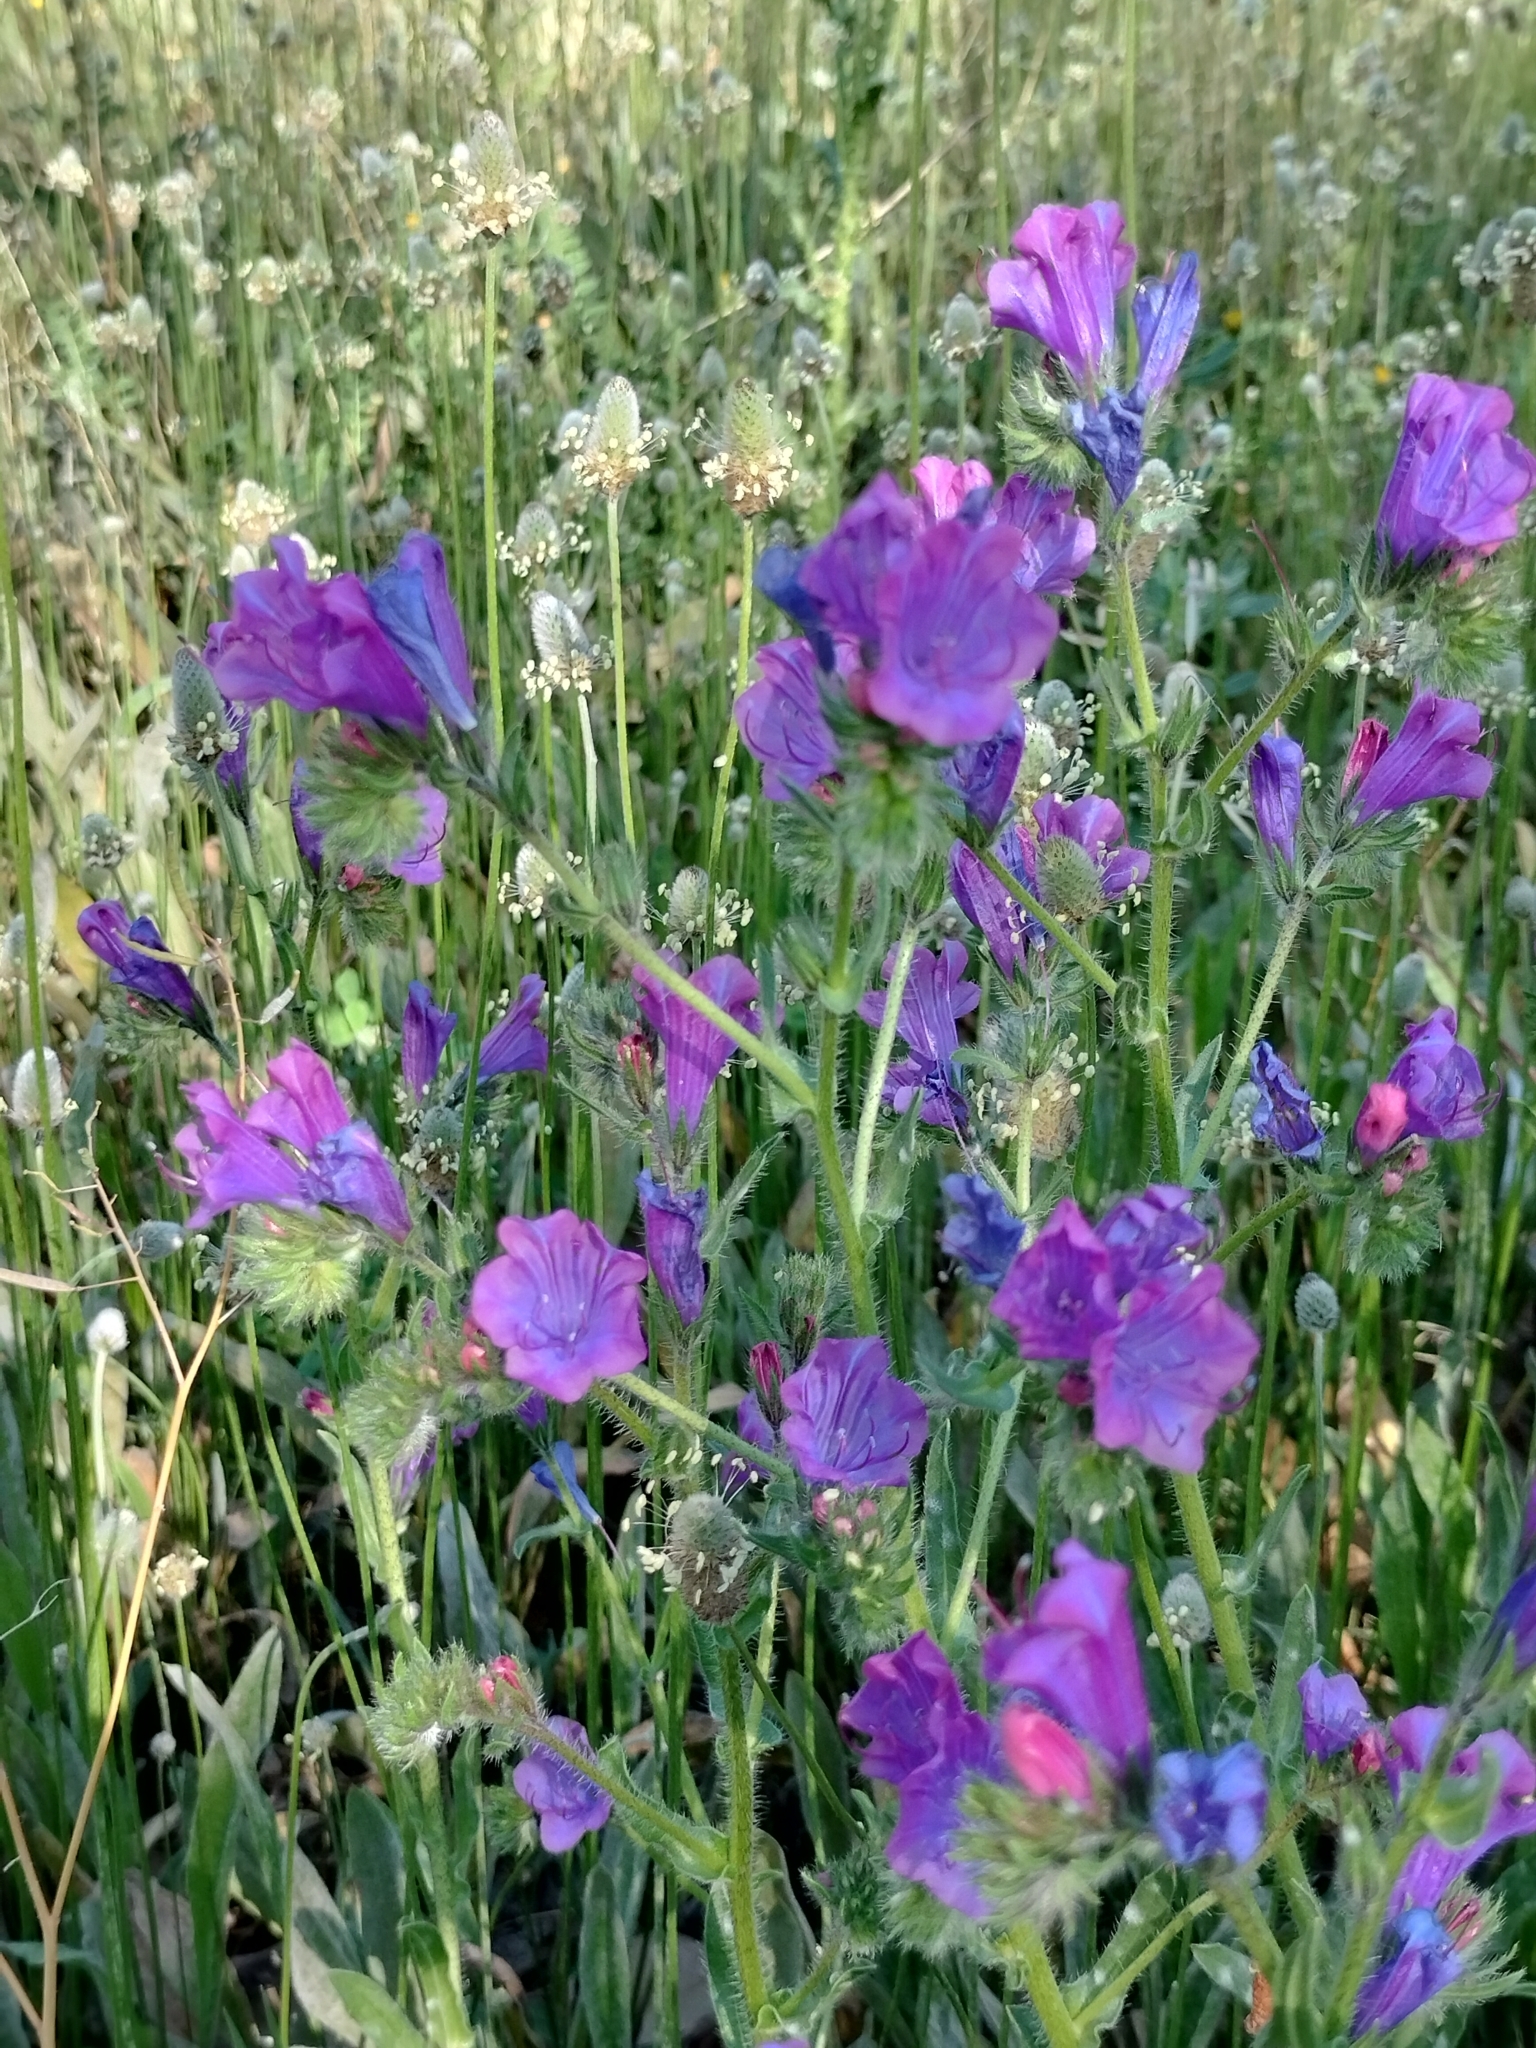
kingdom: Plantae
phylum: Tracheophyta
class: Magnoliopsida
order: Boraginales
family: Boraginaceae
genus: Echium
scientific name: Echium plantagineum
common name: Purple viper's-bugloss
